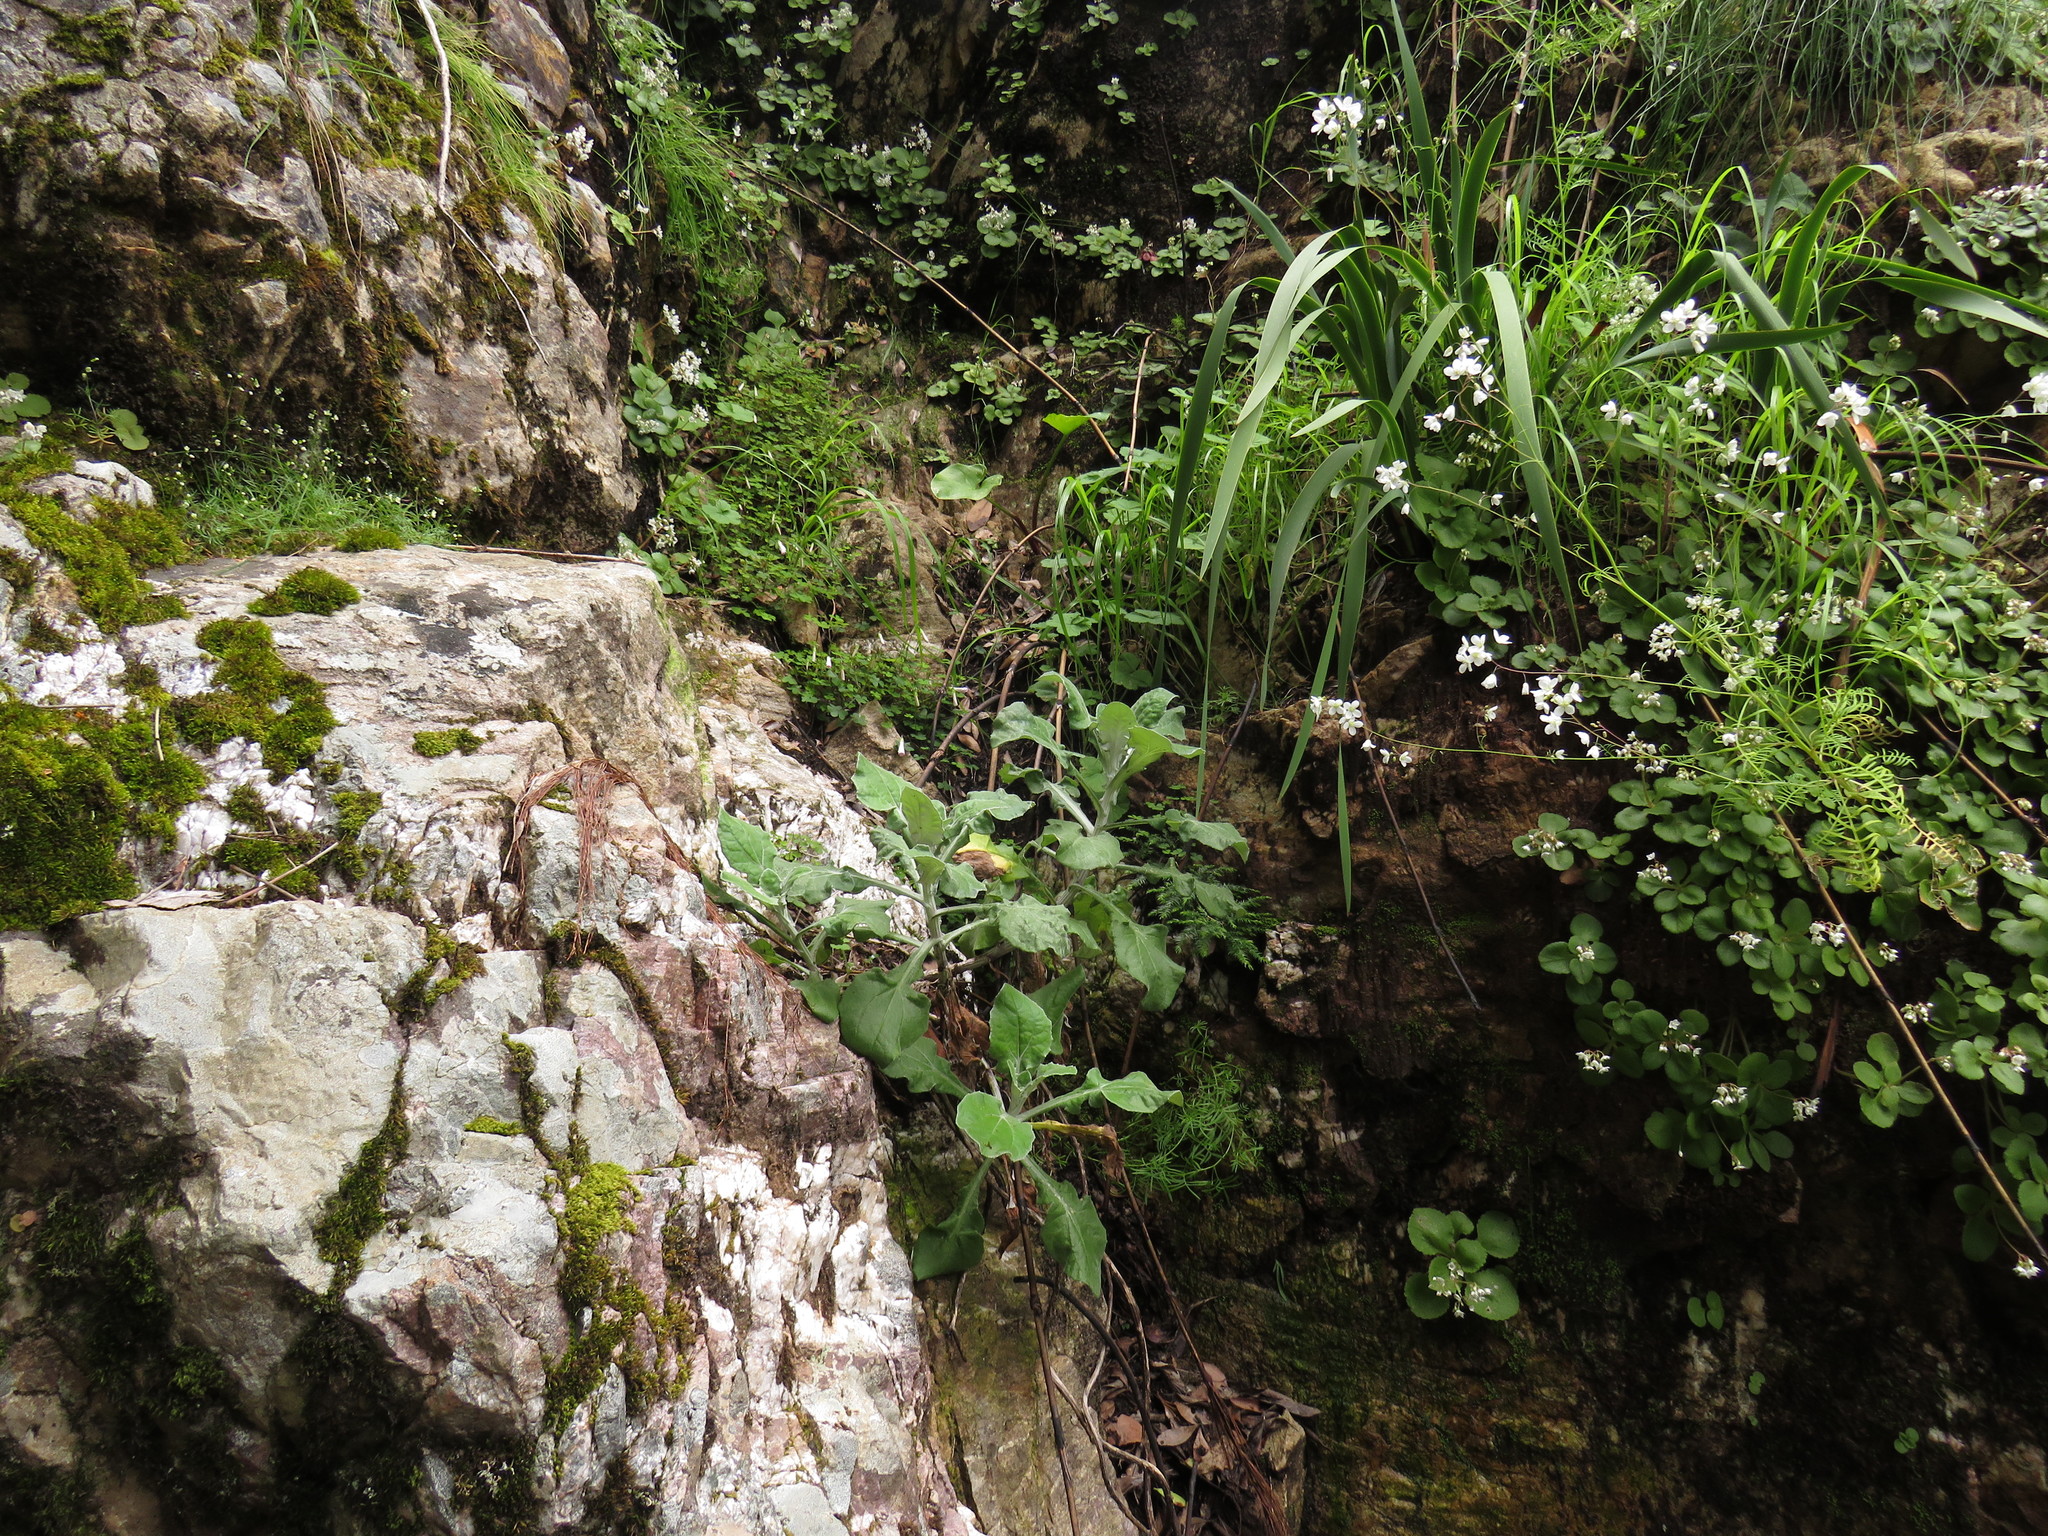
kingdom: Plantae
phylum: Tracheophyta
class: Magnoliopsida
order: Oxalidales
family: Oxalidaceae
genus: Oxalis
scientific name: Oxalis incarnata
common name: Pale pink-sorrel
